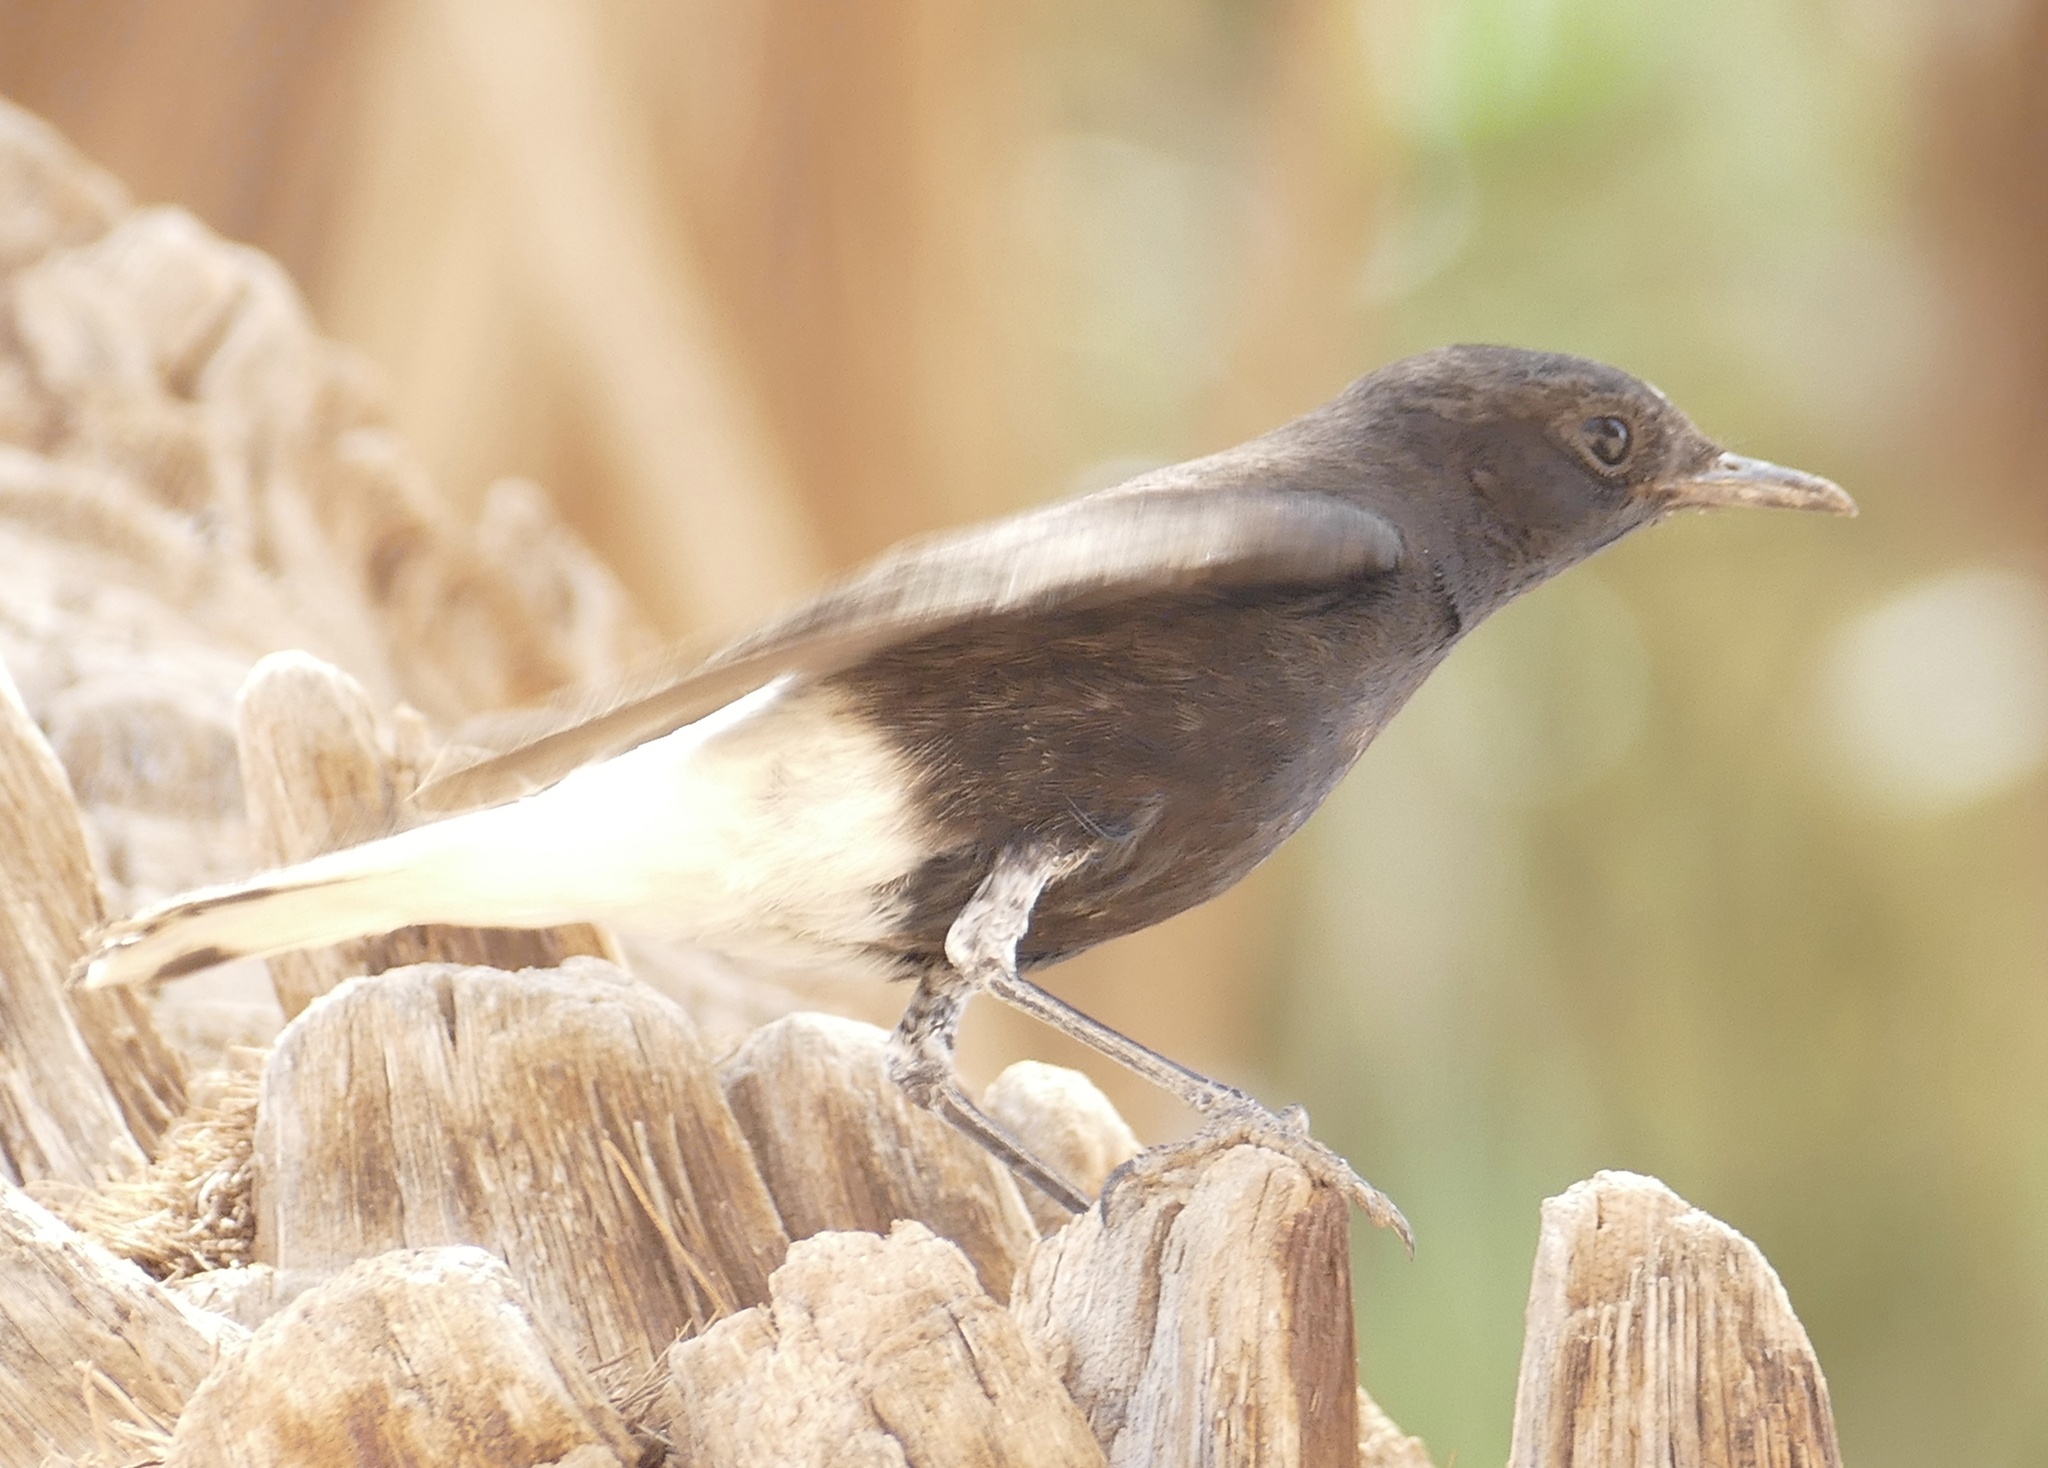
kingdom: Animalia
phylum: Chordata
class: Aves
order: Passeriformes
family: Muscicapidae
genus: Oenanthe
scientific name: Oenanthe leucopyga
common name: White-crowned wheatear
